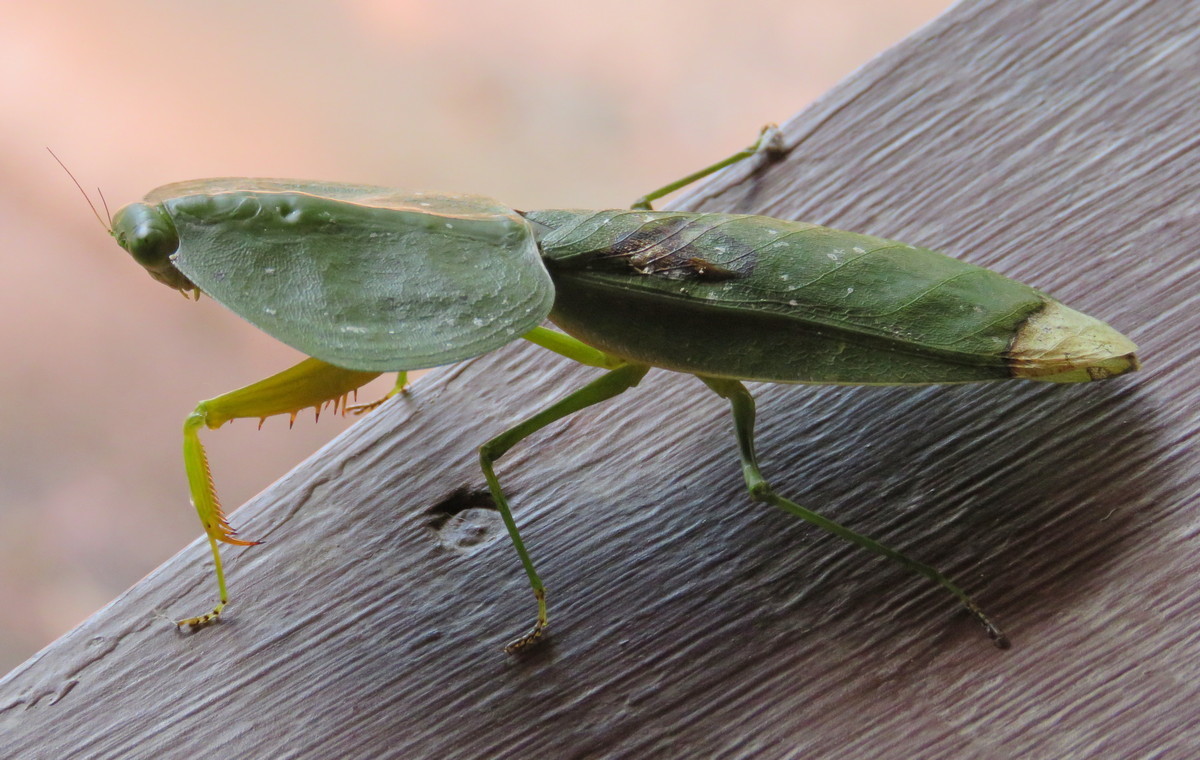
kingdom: Animalia
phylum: Arthropoda
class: Insecta
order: Mantodea
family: Mantidae
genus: Choeradodis
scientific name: Choeradodis rhombicollis
